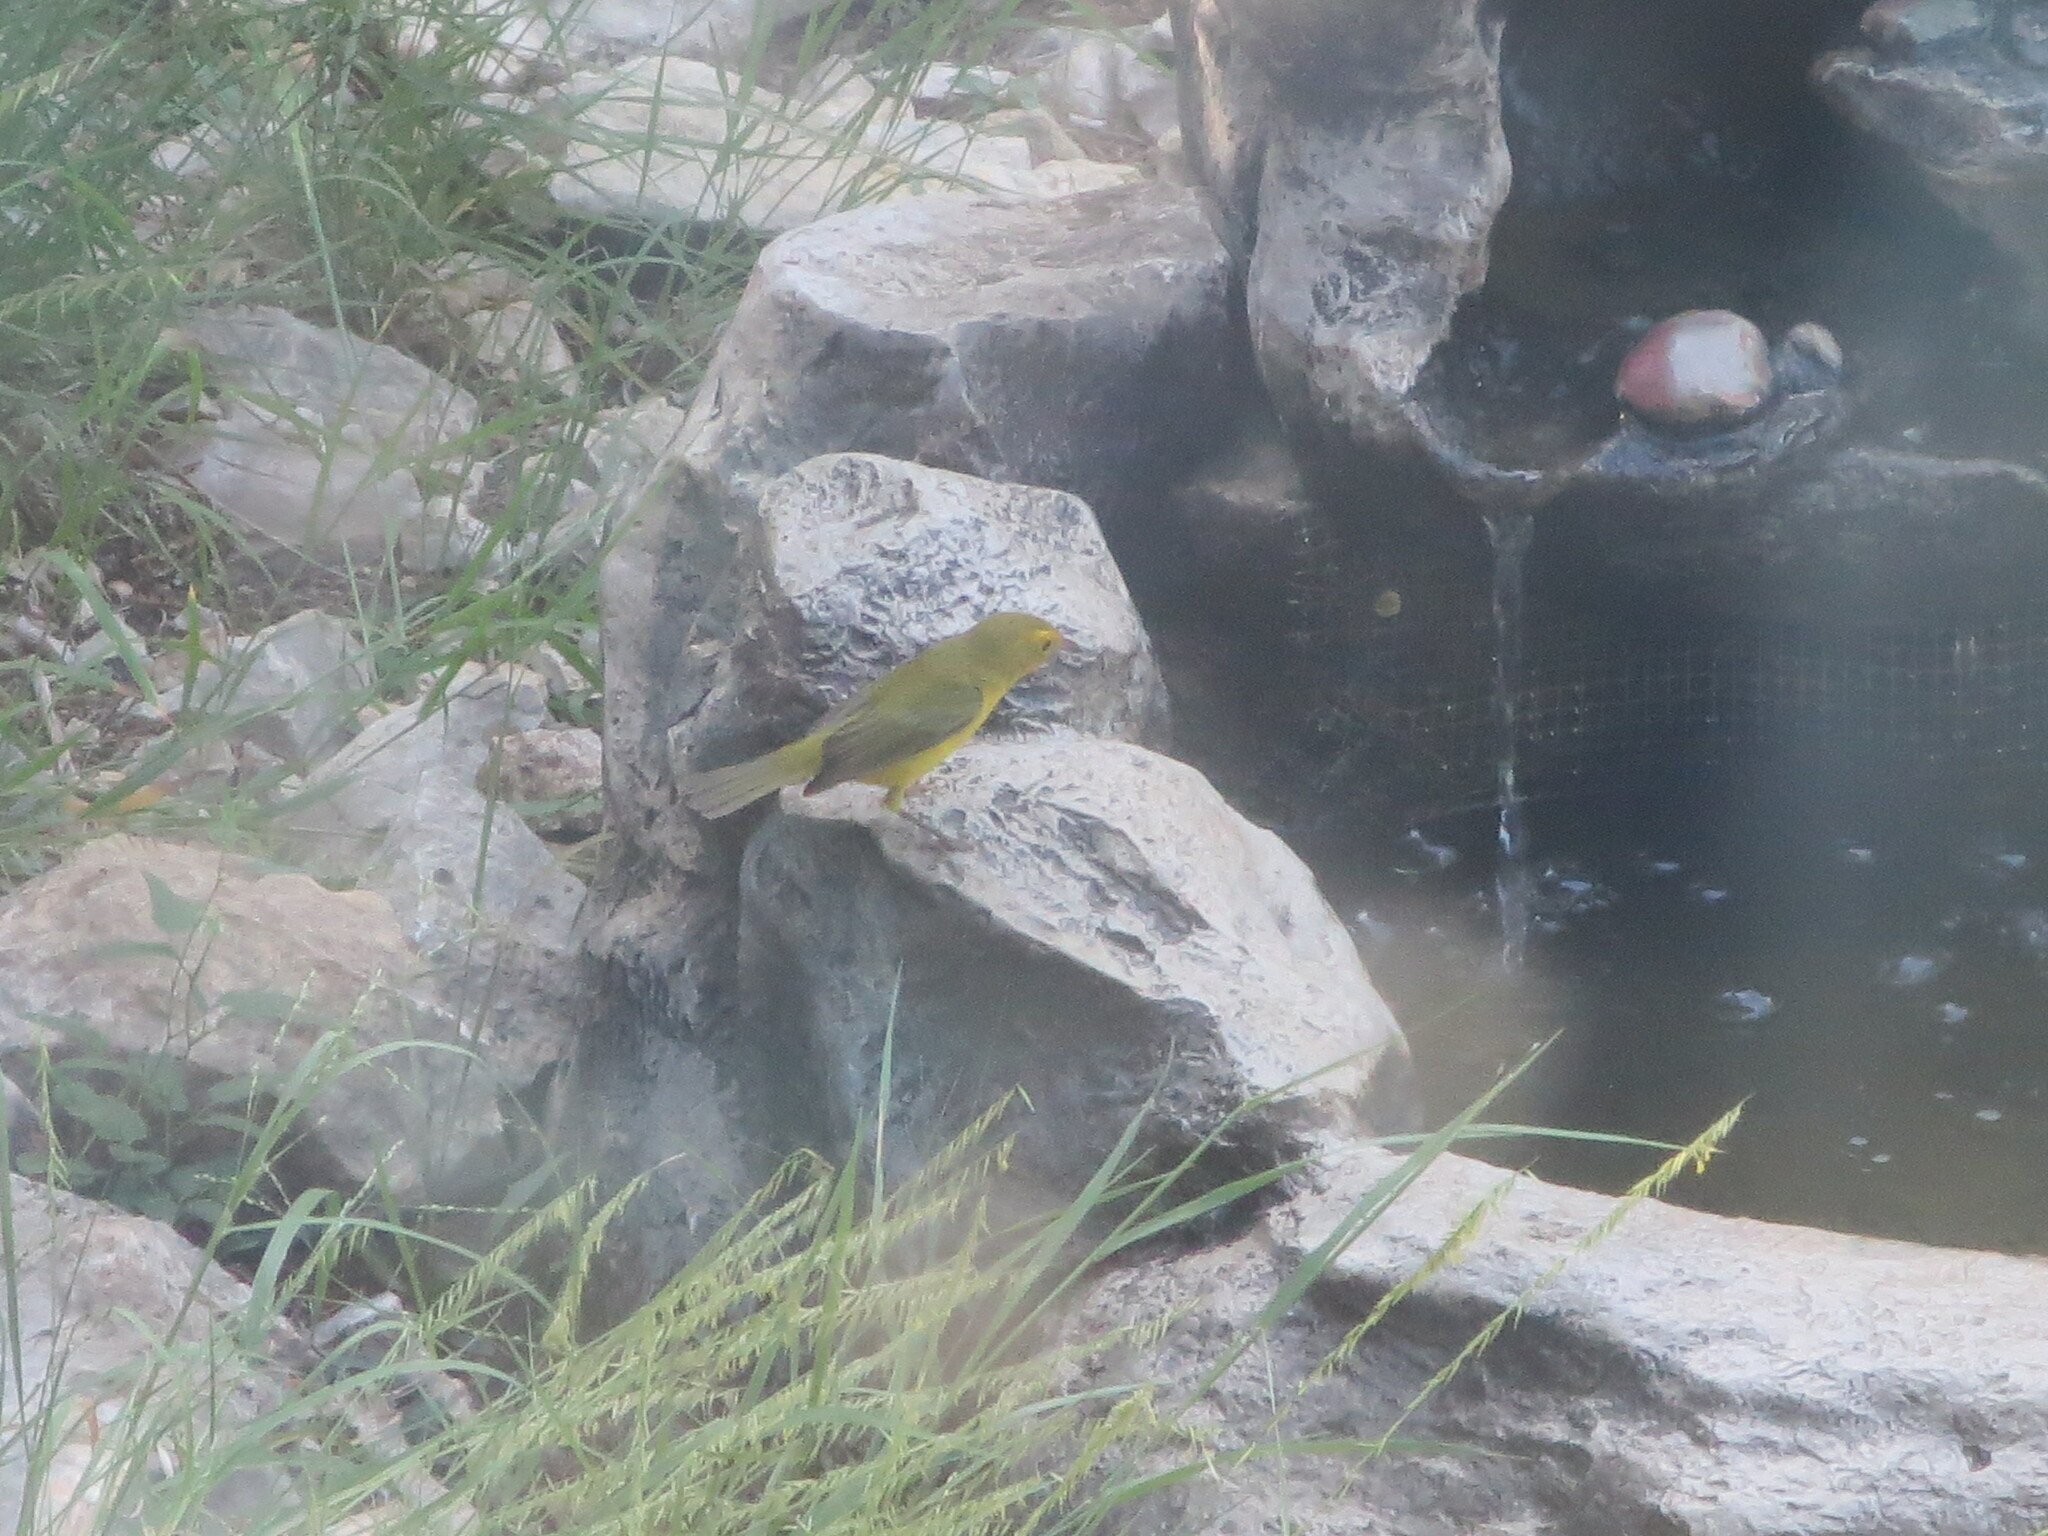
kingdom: Animalia
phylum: Chordata
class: Aves
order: Passeriformes
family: Parulidae
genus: Cardellina
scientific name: Cardellina pusilla
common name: Wilson's warbler
